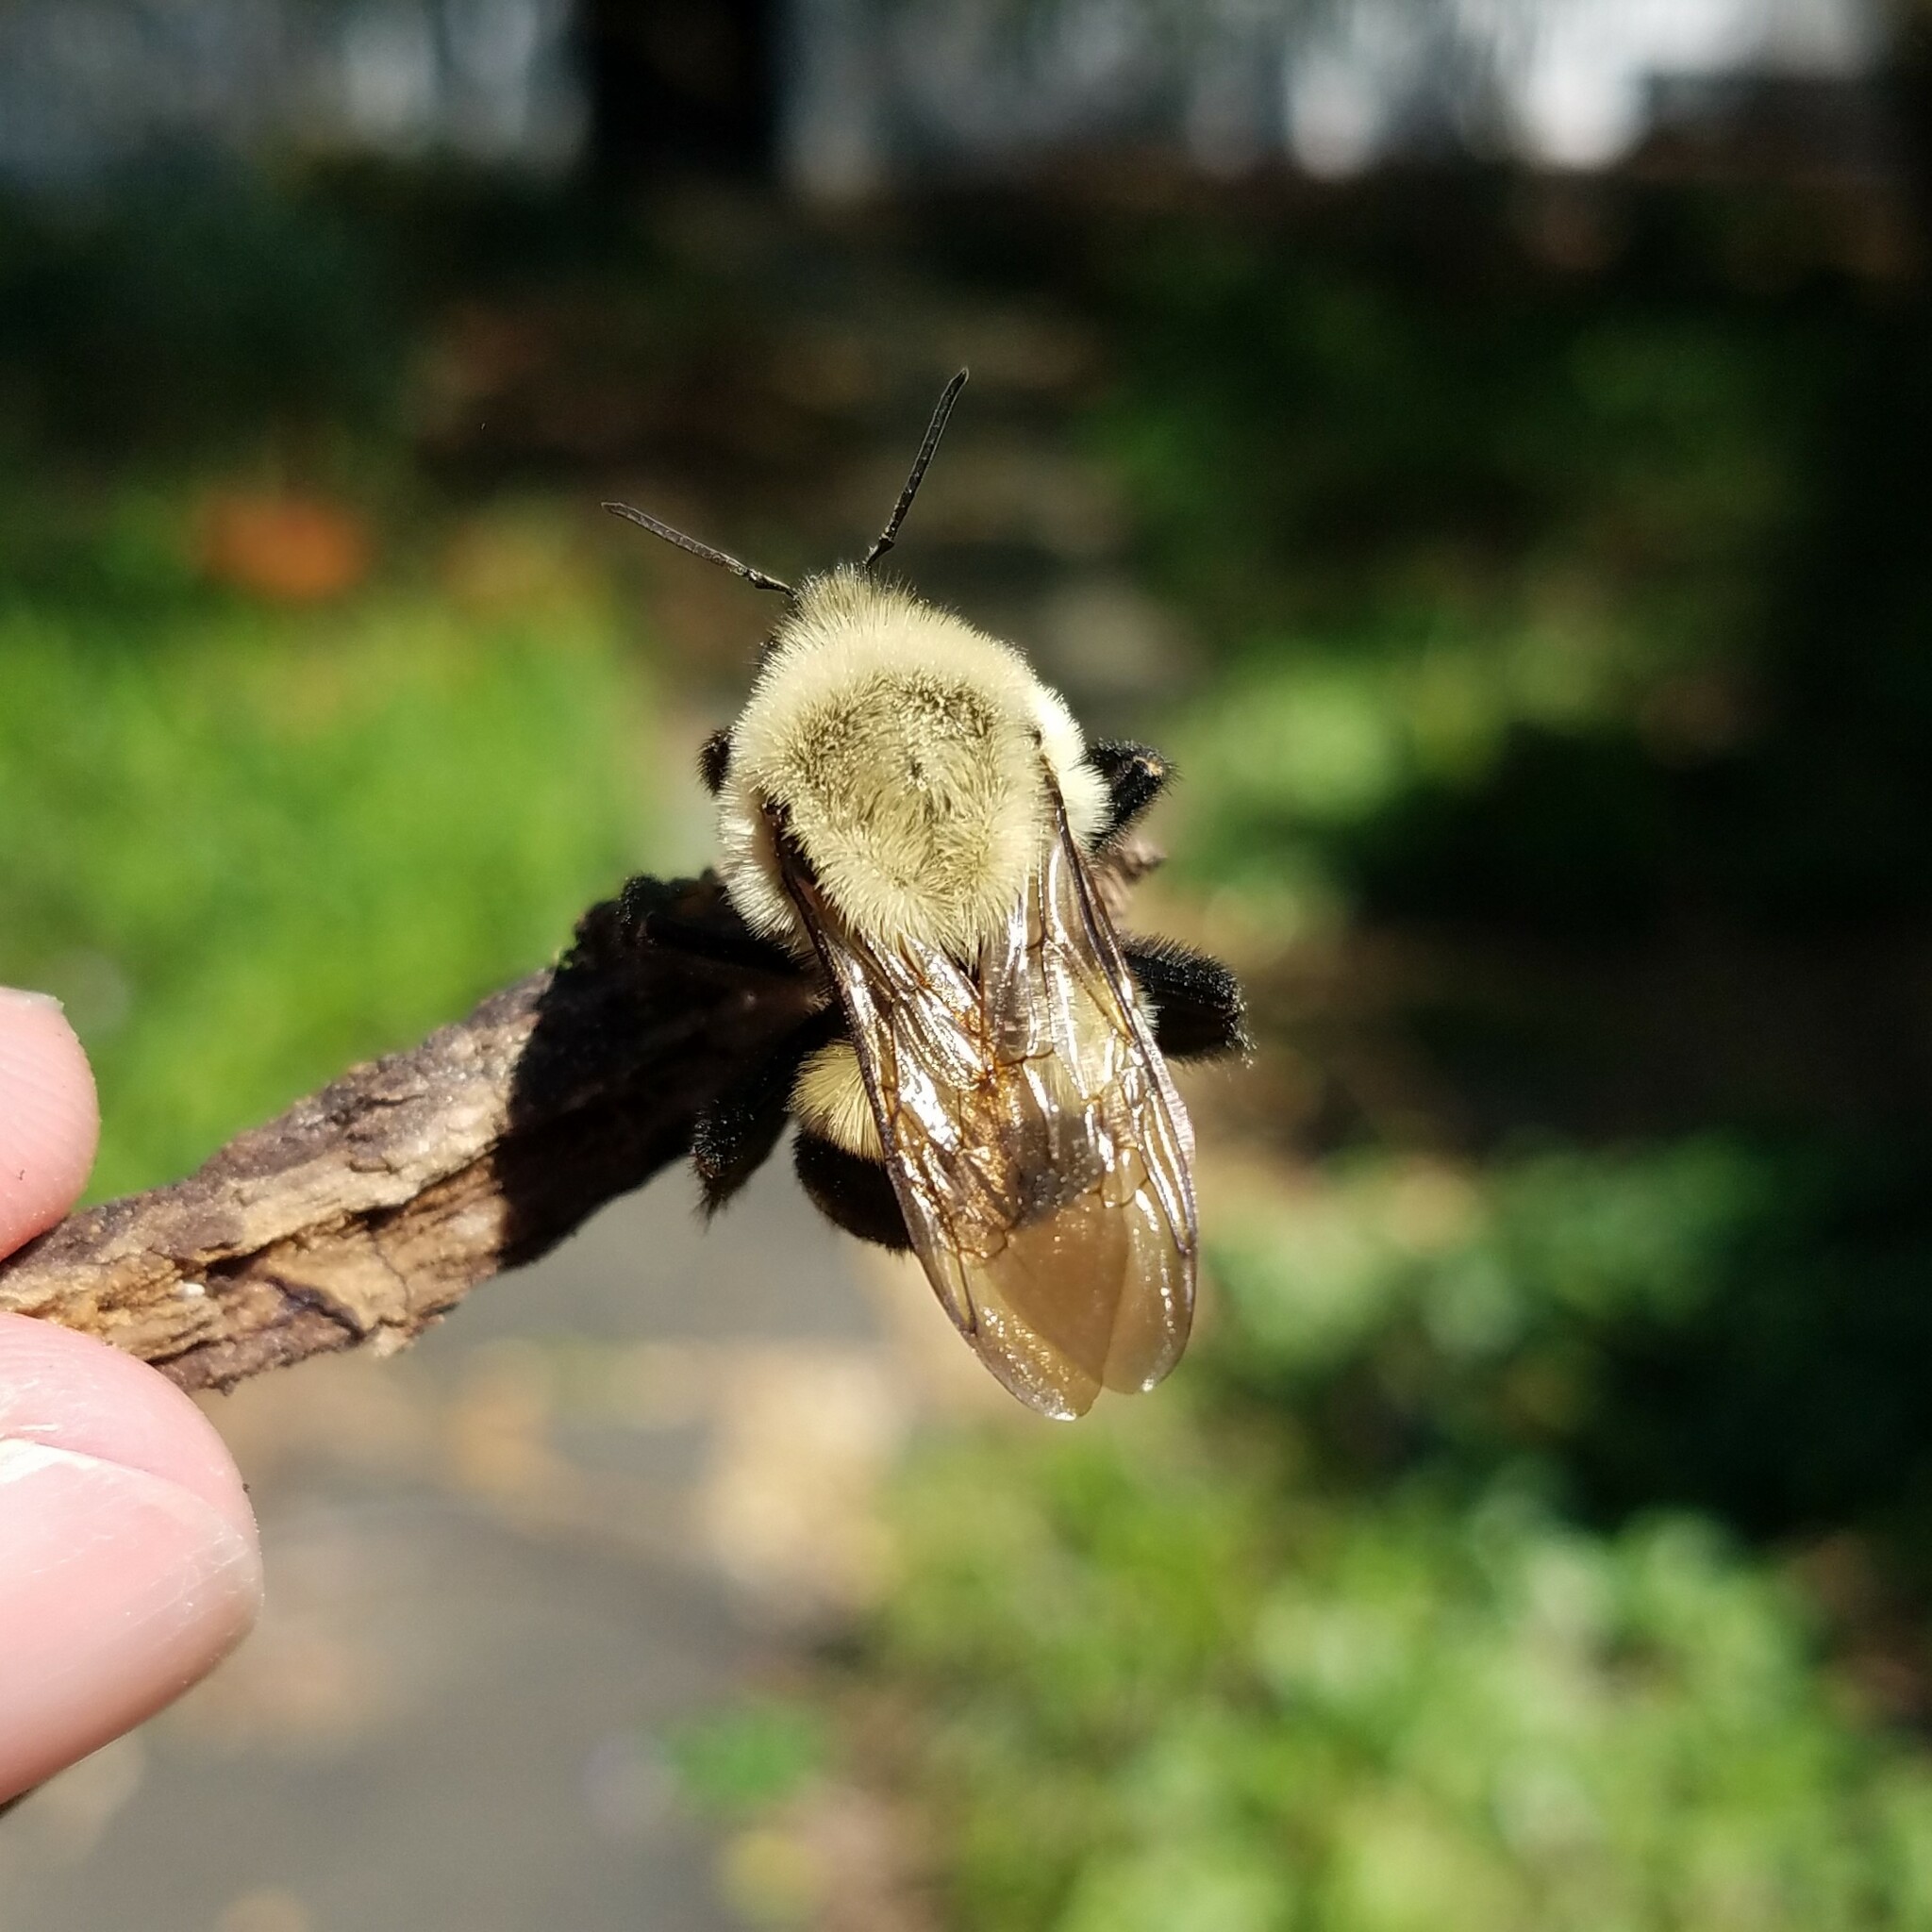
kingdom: Animalia
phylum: Arthropoda
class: Insecta
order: Hymenoptera
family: Apidae
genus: Bombus
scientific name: Bombus impatiens
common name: Common eastern bumble bee
